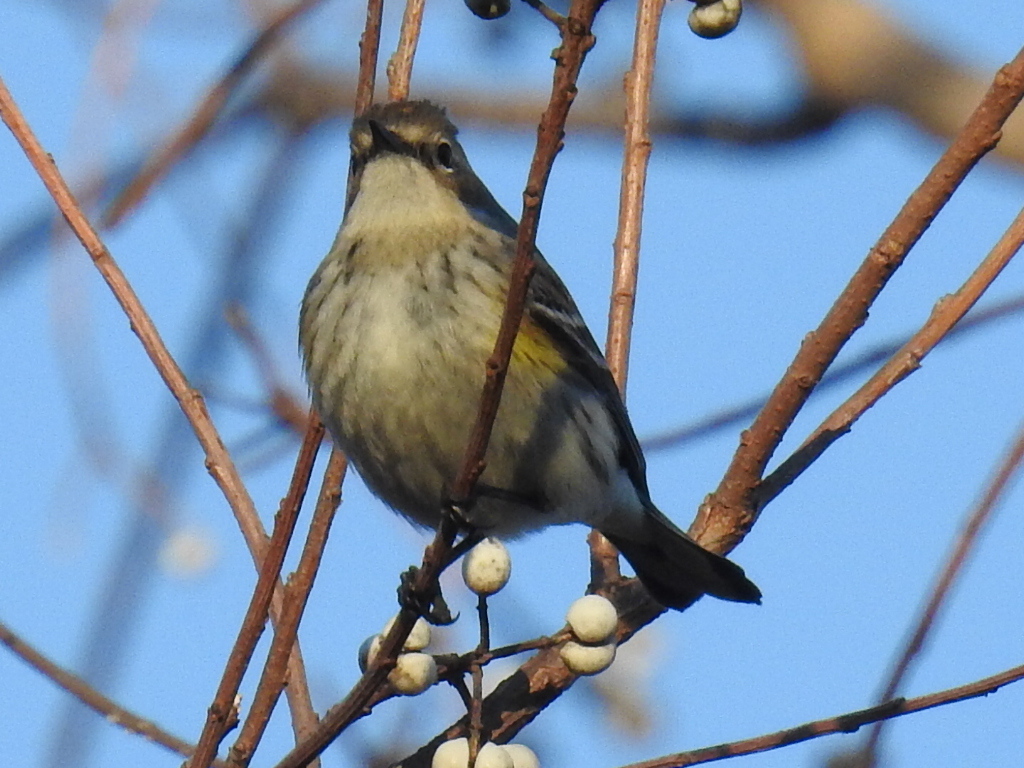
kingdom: Animalia
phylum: Chordata
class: Aves
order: Passeriformes
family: Parulidae
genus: Setophaga
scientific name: Setophaga coronata
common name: Myrtle warbler
